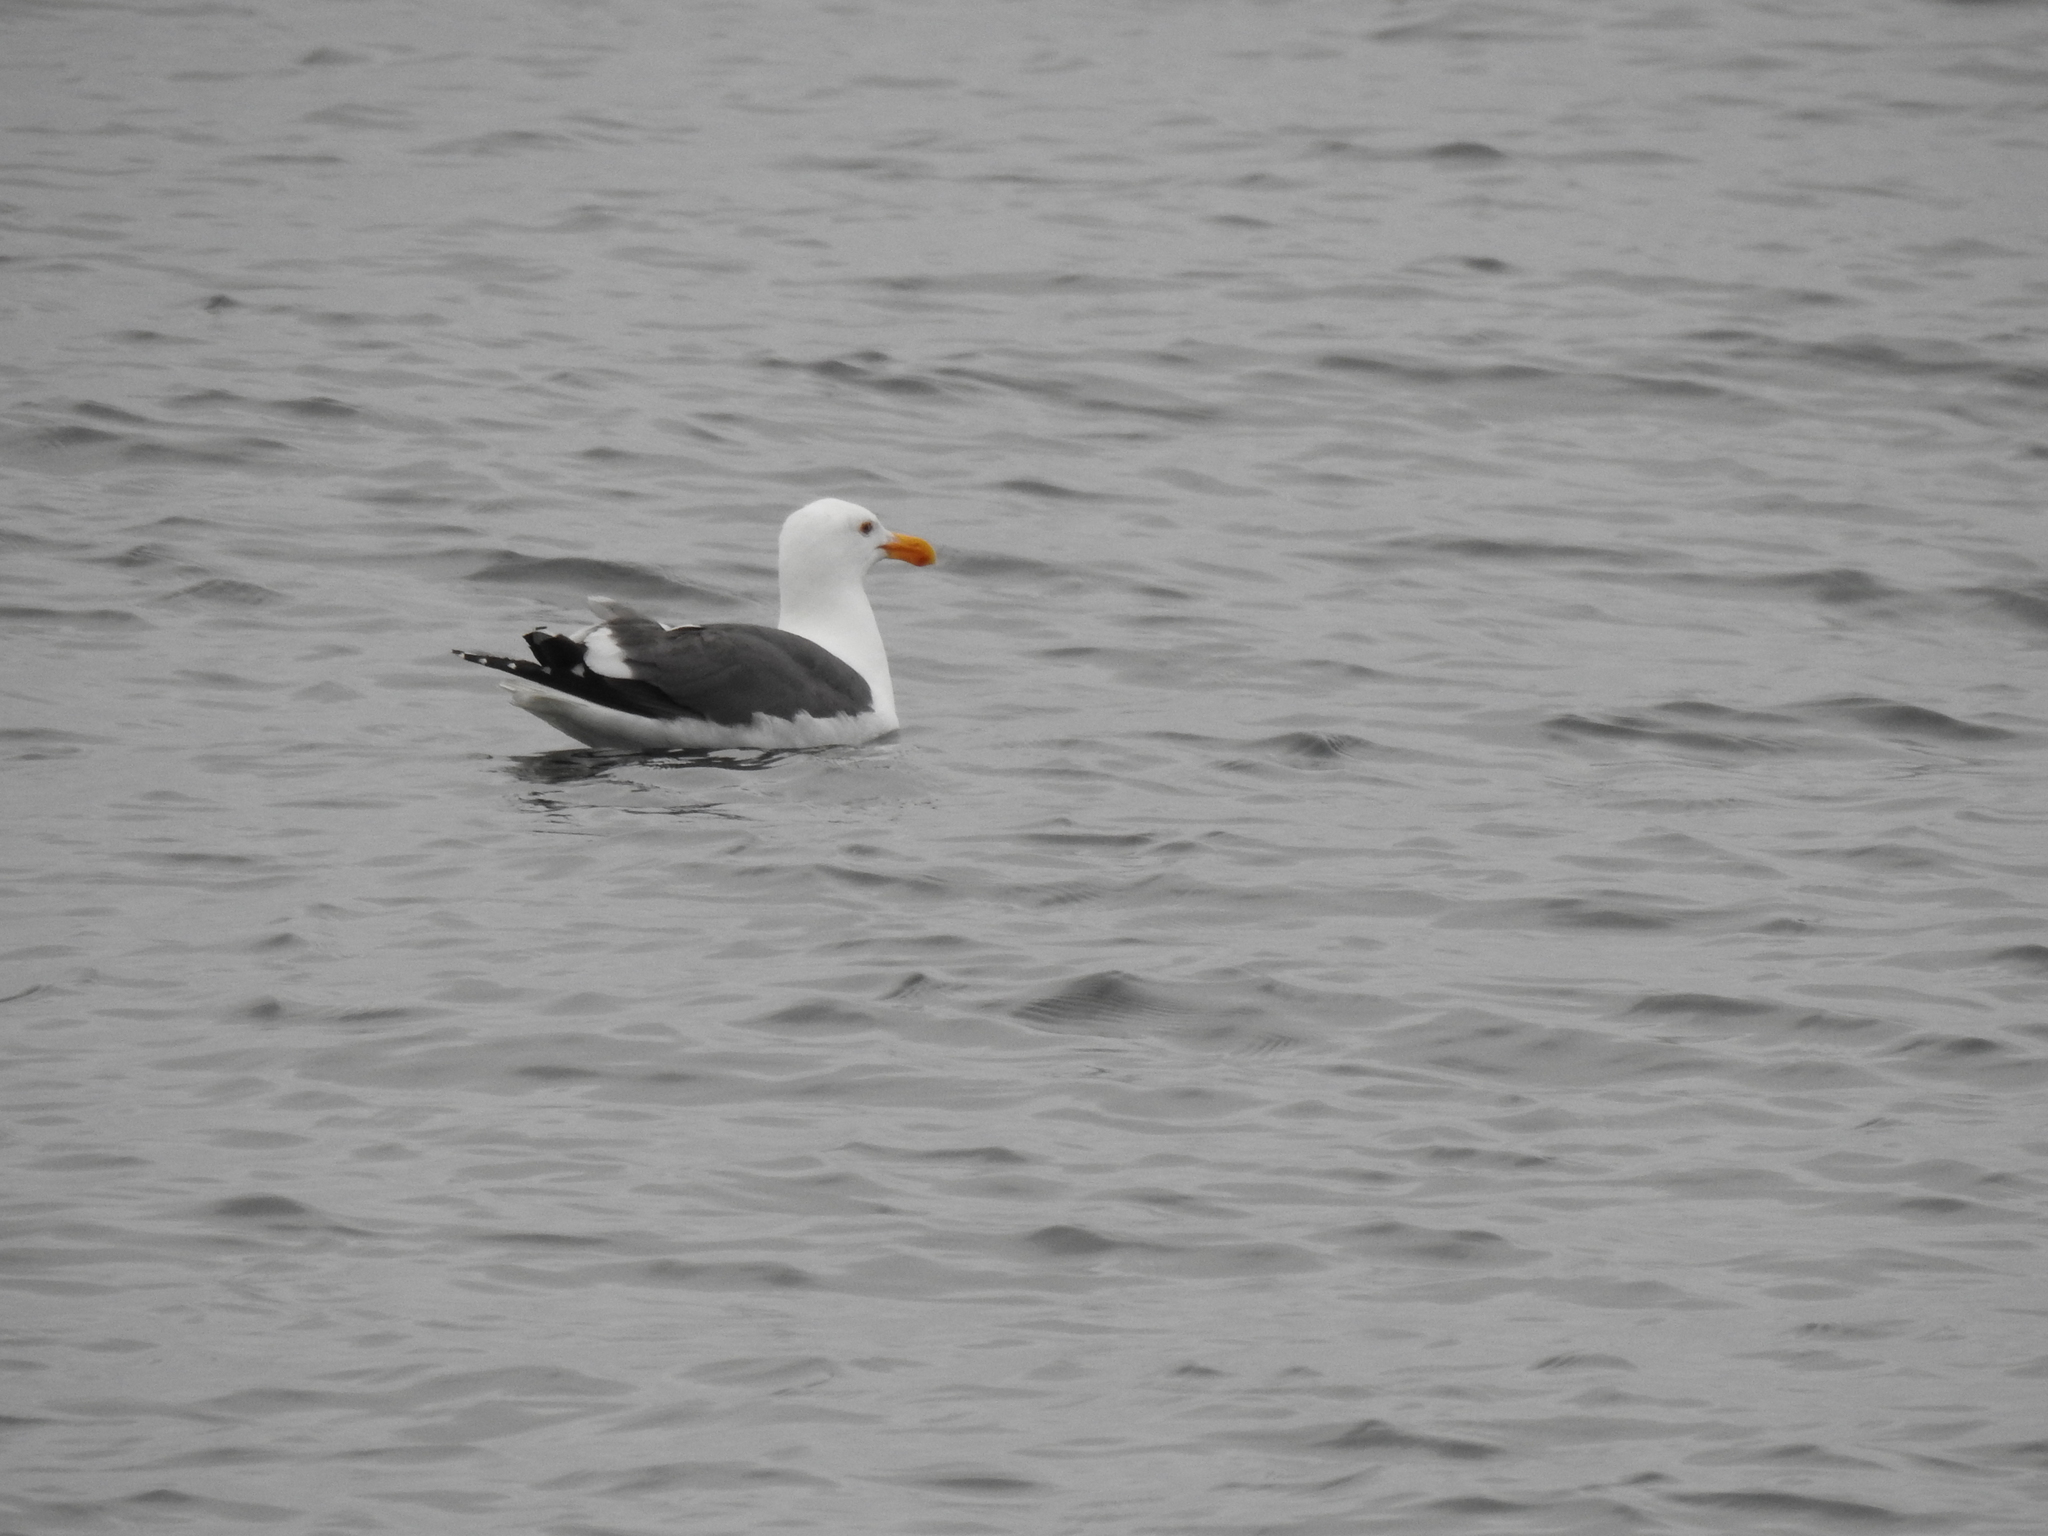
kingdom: Animalia
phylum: Chordata
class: Aves
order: Charadriiformes
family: Laridae
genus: Larus
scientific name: Larus occidentalis
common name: Western gull
